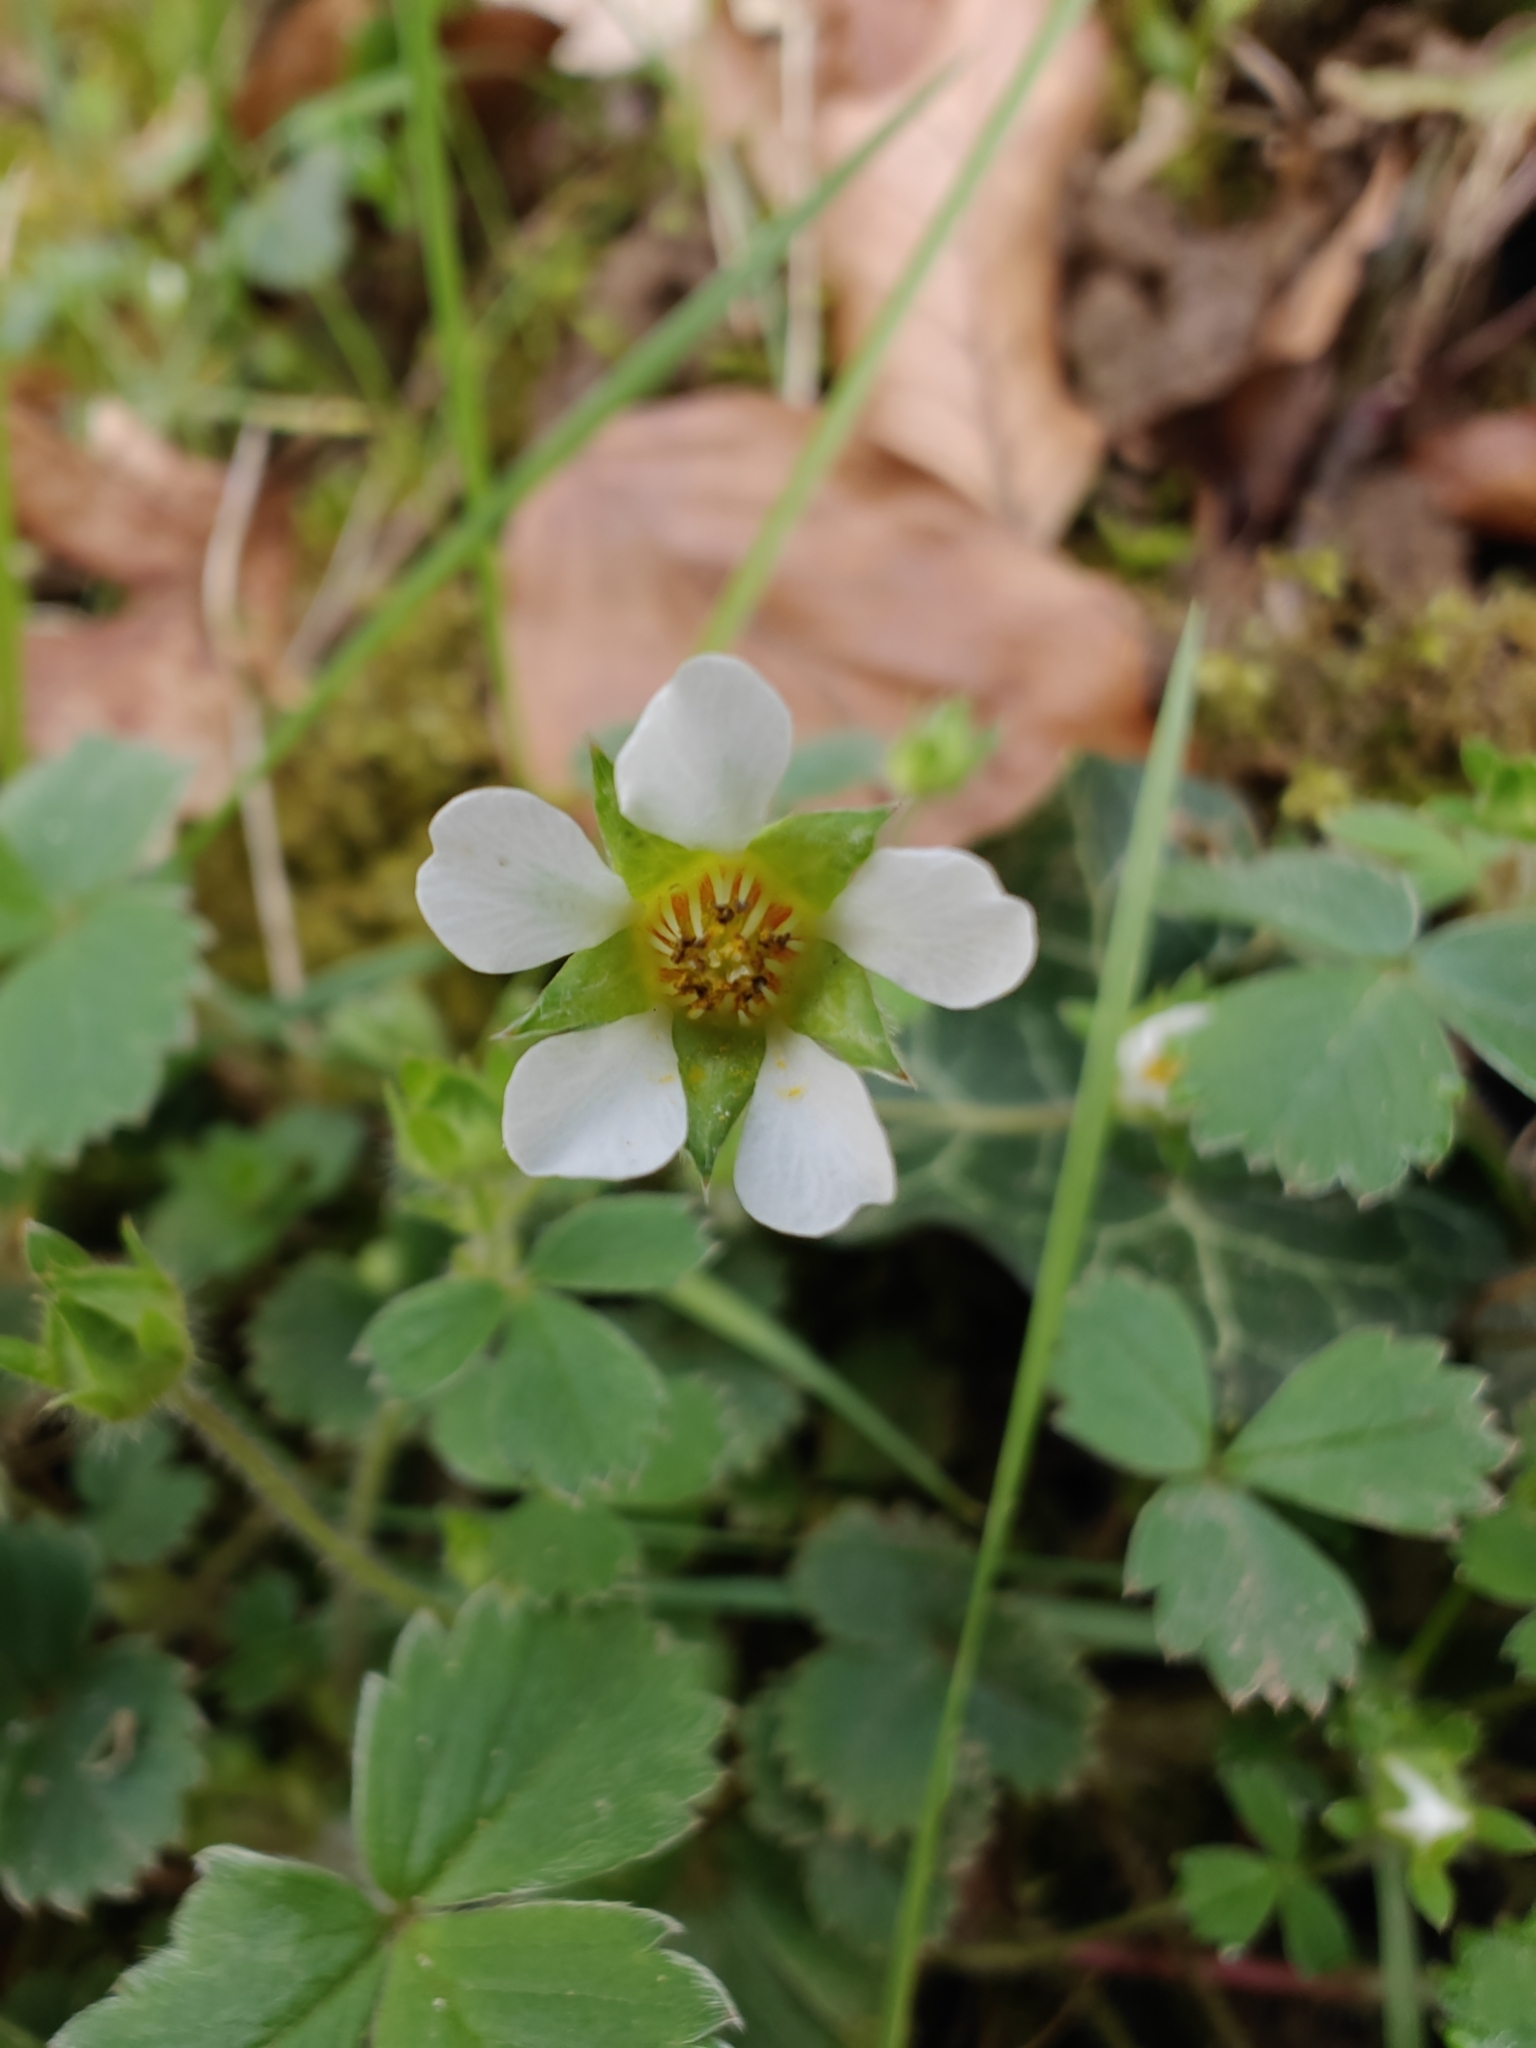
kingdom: Plantae
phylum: Tracheophyta
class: Magnoliopsida
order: Rosales
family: Rosaceae
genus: Potentilla
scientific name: Potentilla sterilis
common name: Barren strawberry
